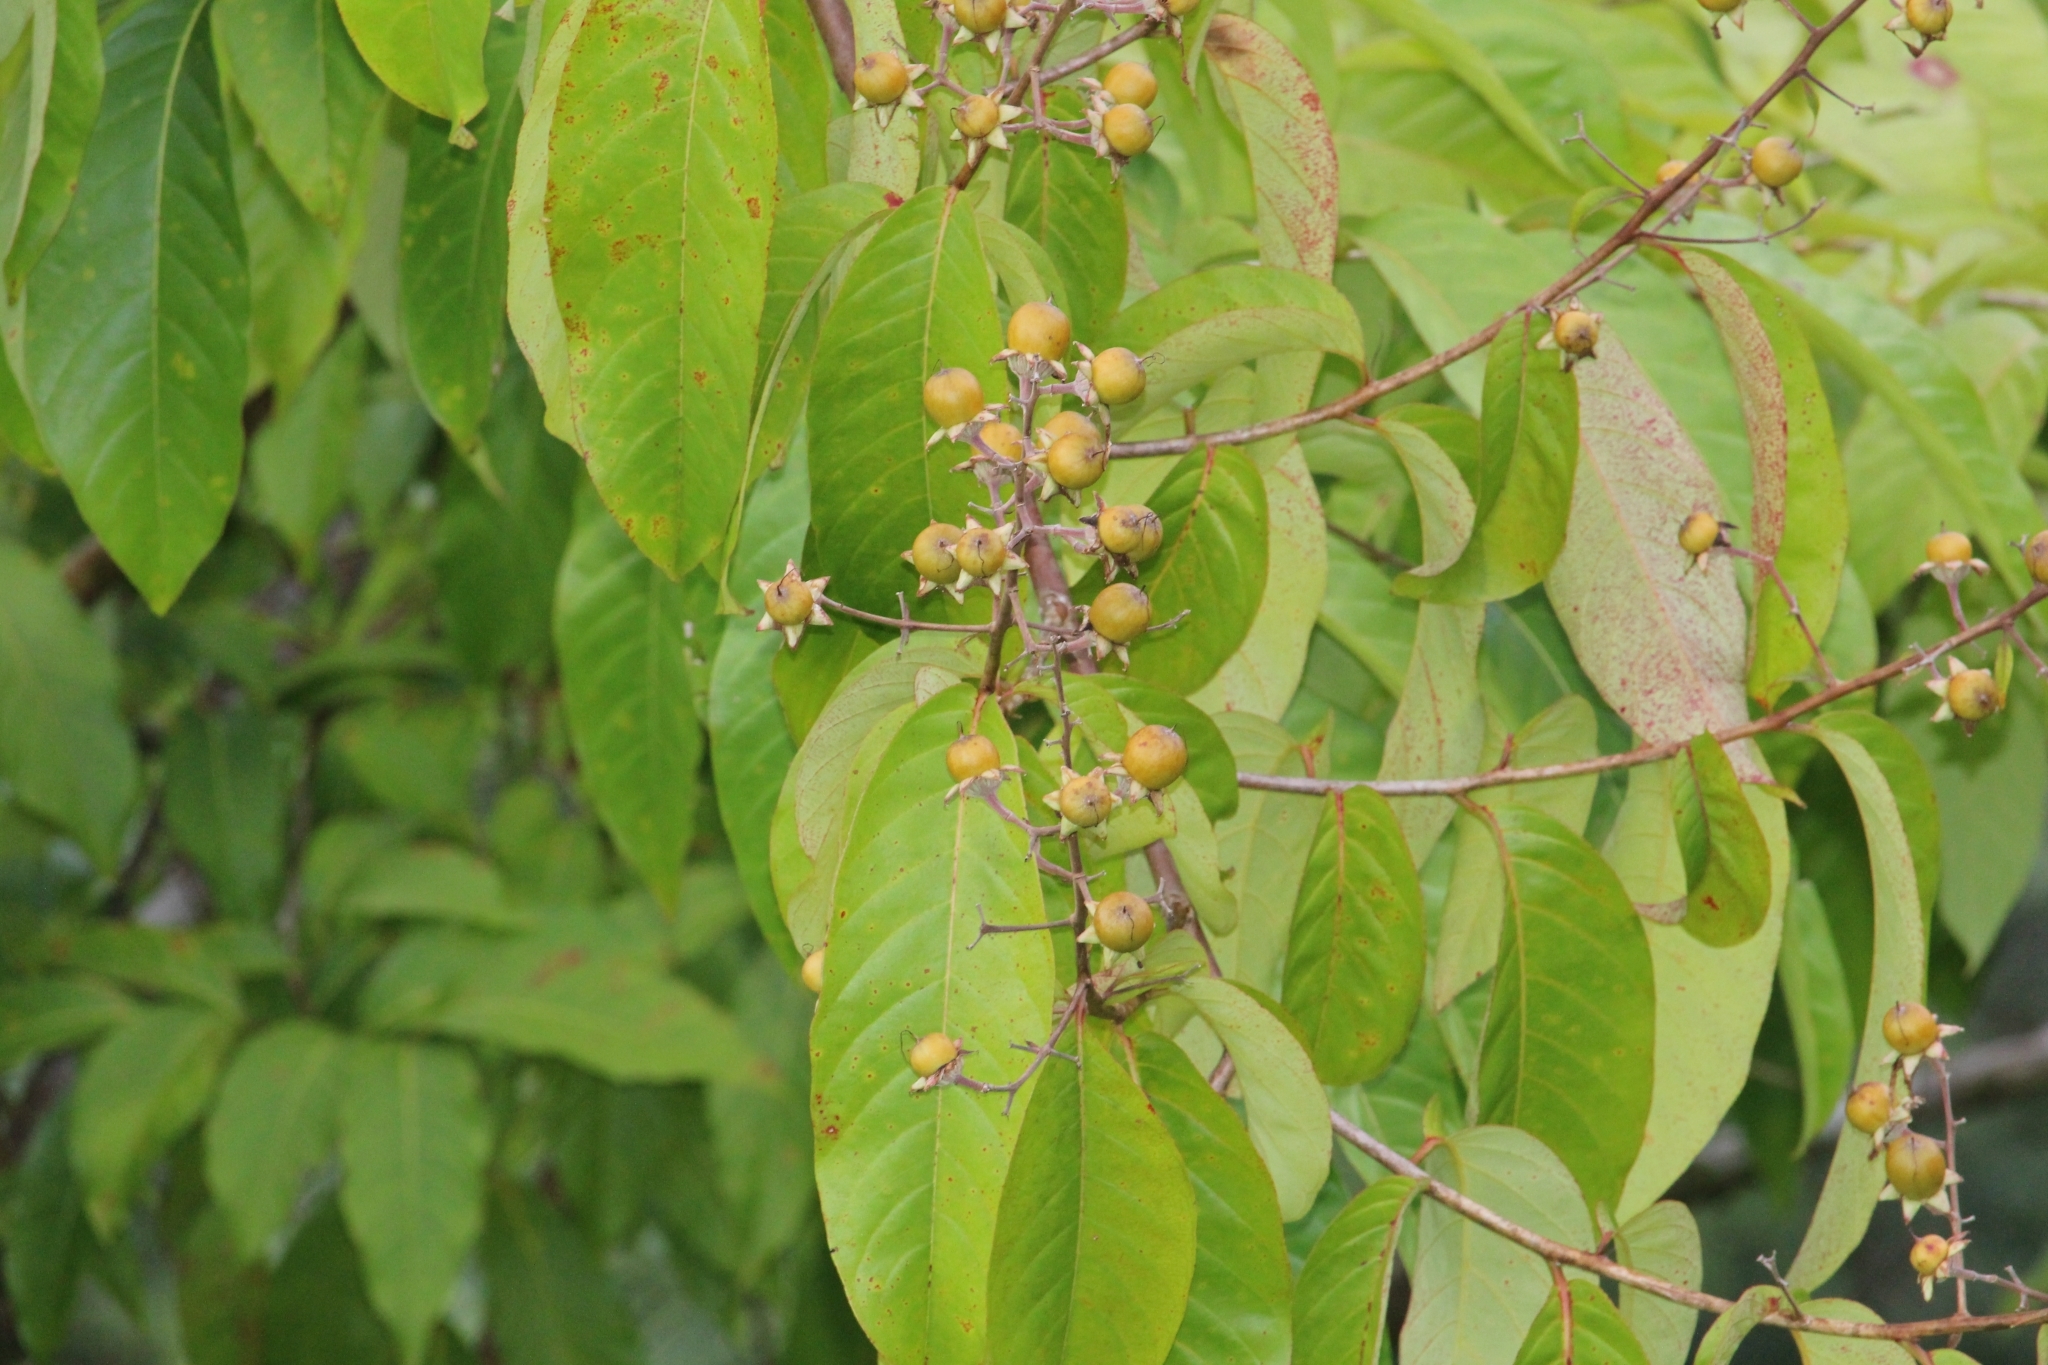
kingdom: Plantae
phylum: Tracheophyta
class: Magnoliopsida
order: Myrtales
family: Lythraceae
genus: Lagerstroemia
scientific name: Lagerstroemia speciosa
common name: Queen's crape-myrtle
